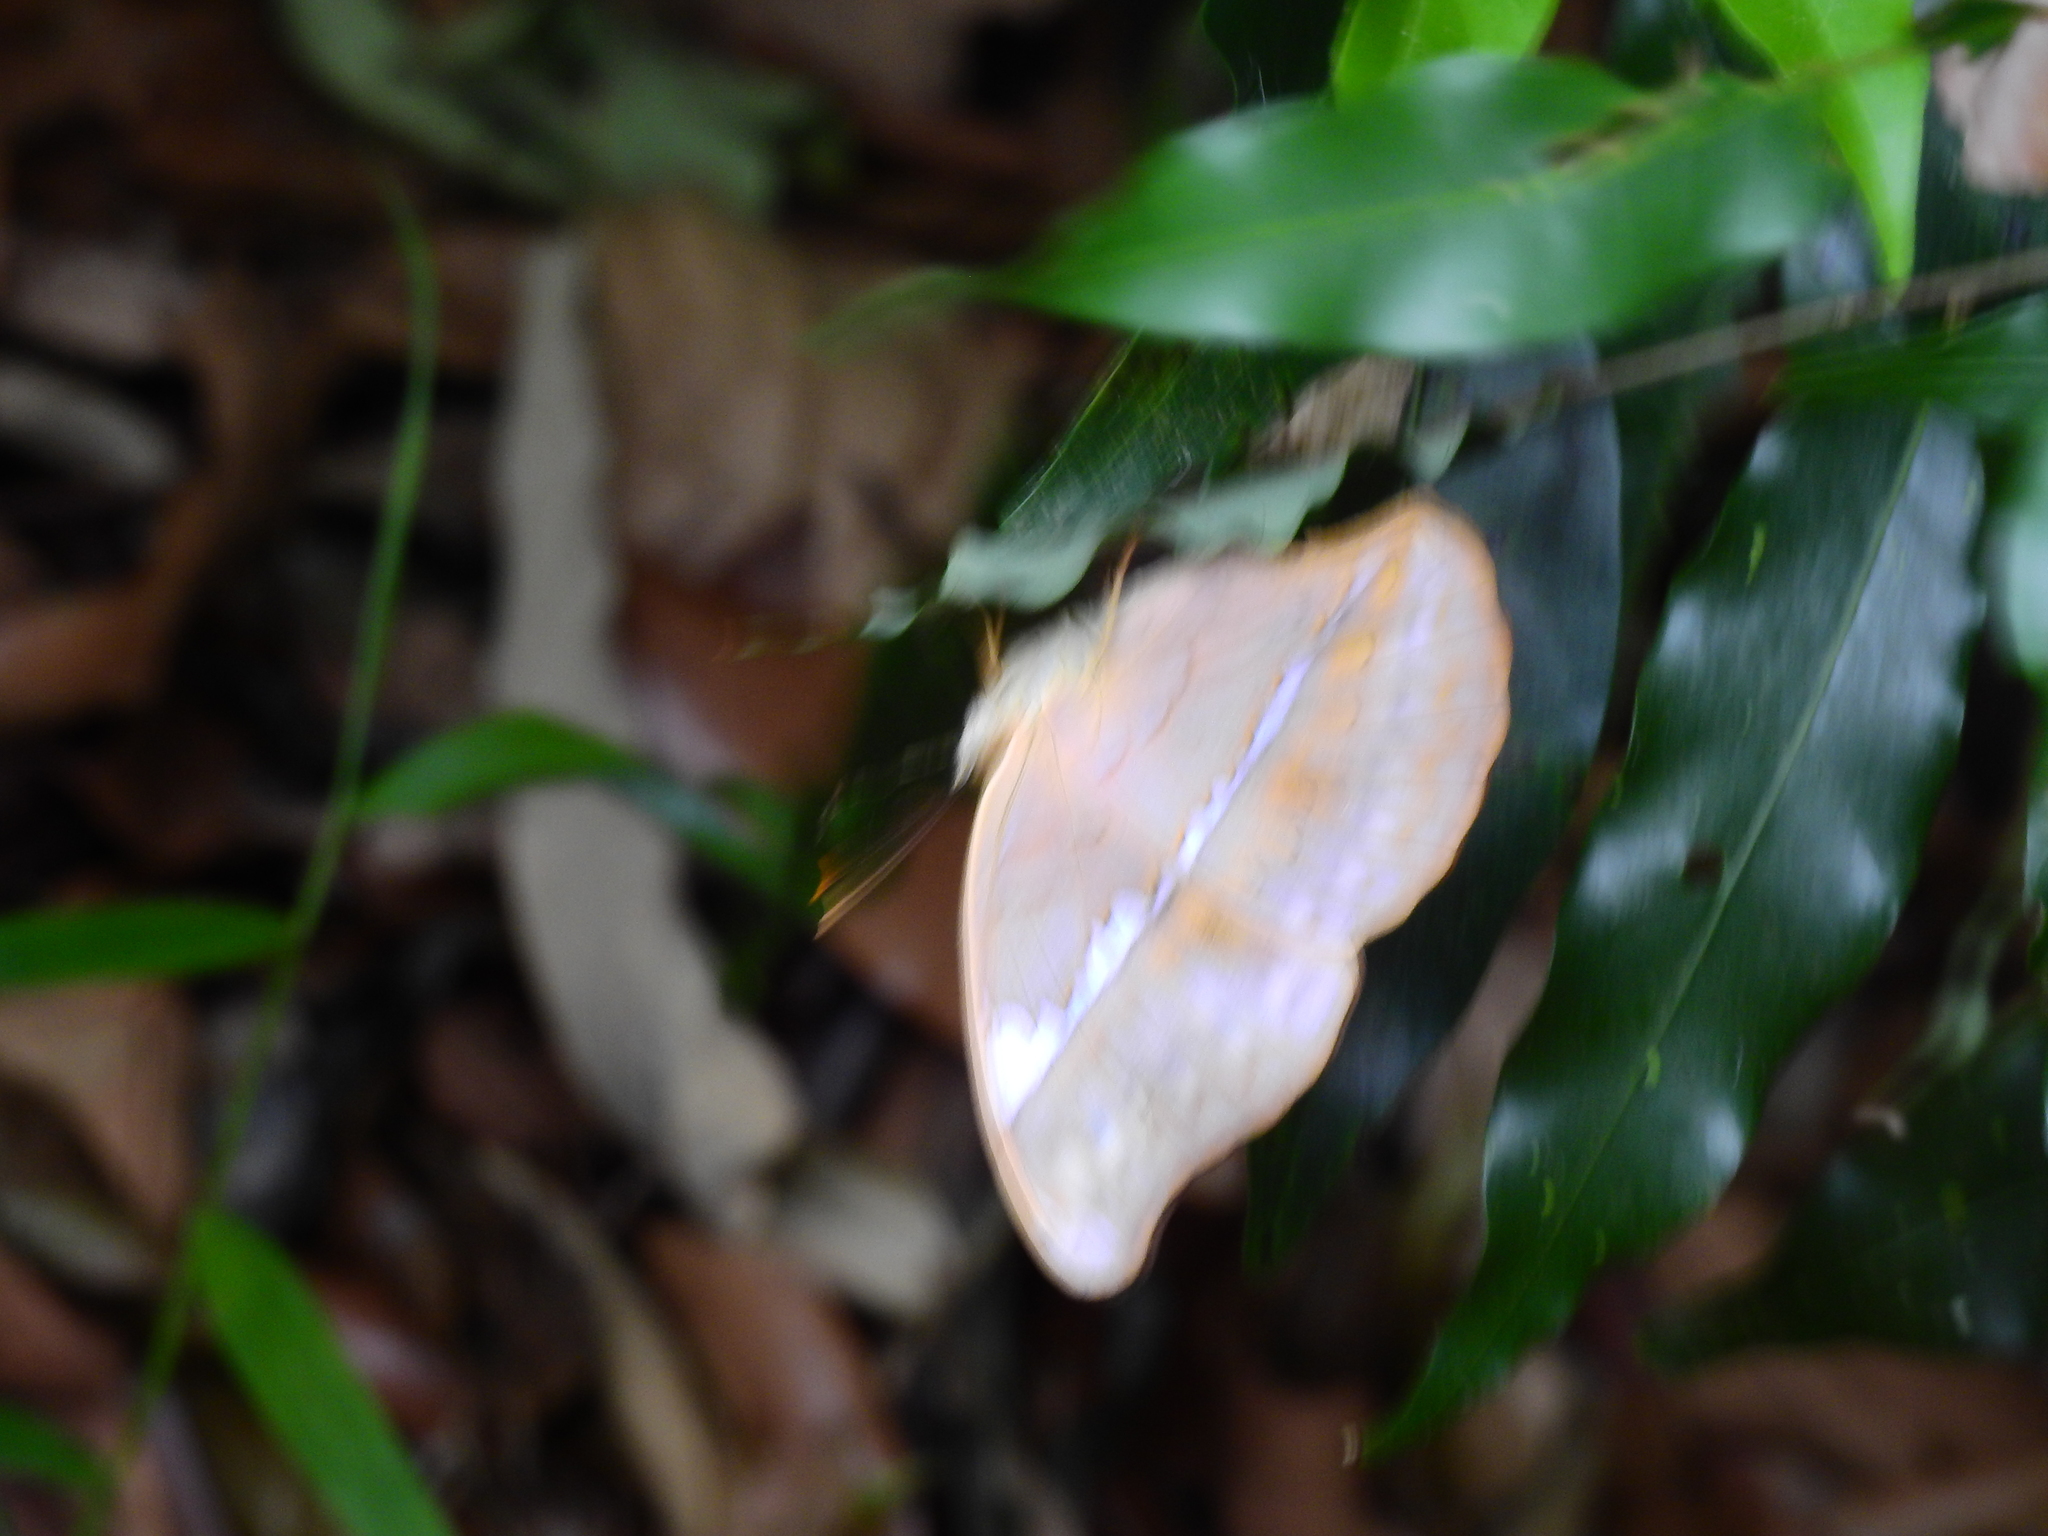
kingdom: Animalia
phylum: Arthropoda
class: Insecta
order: Lepidoptera
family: Nymphalidae
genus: Cirrochroa
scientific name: Cirrochroa thais
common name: Tamil yeoman
